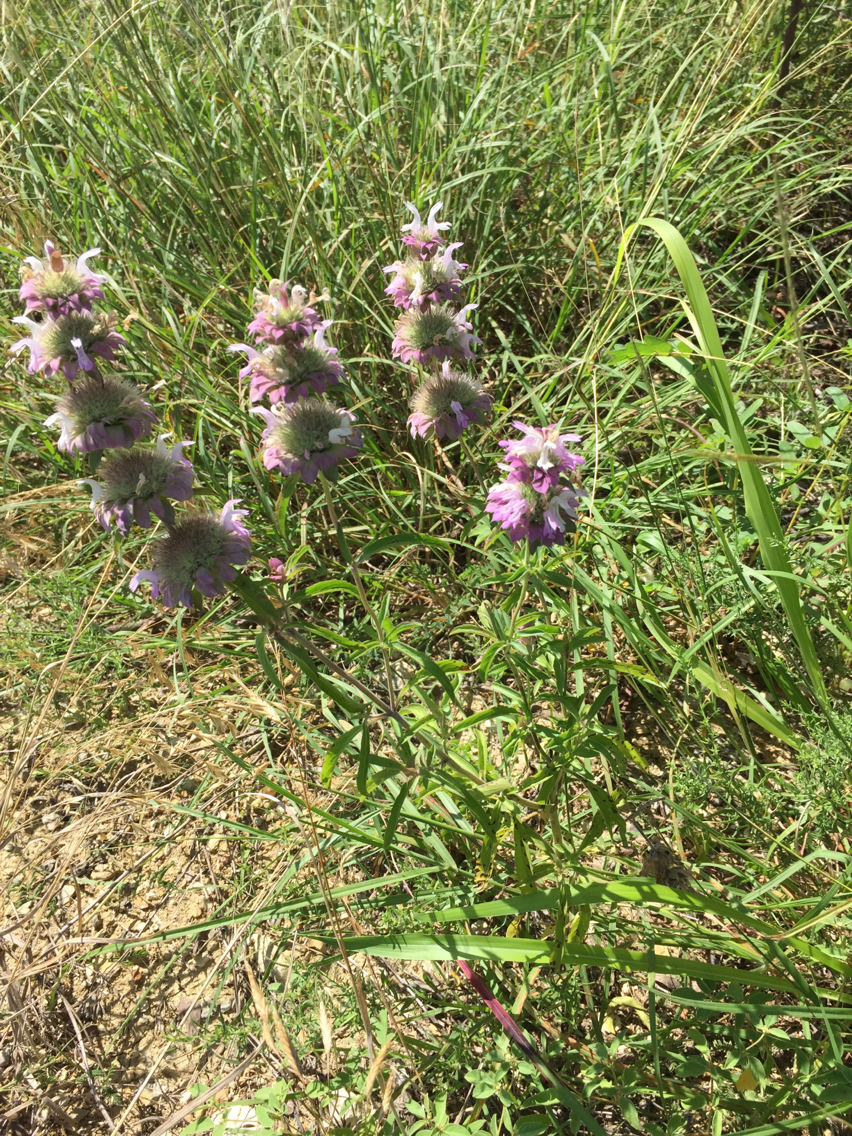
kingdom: Plantae
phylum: Tracheophyta
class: Magnoliopsida
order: Lamiales
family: Lamiaceae
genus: Monarda
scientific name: Monarda citriodora
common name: Lemon beebalm
